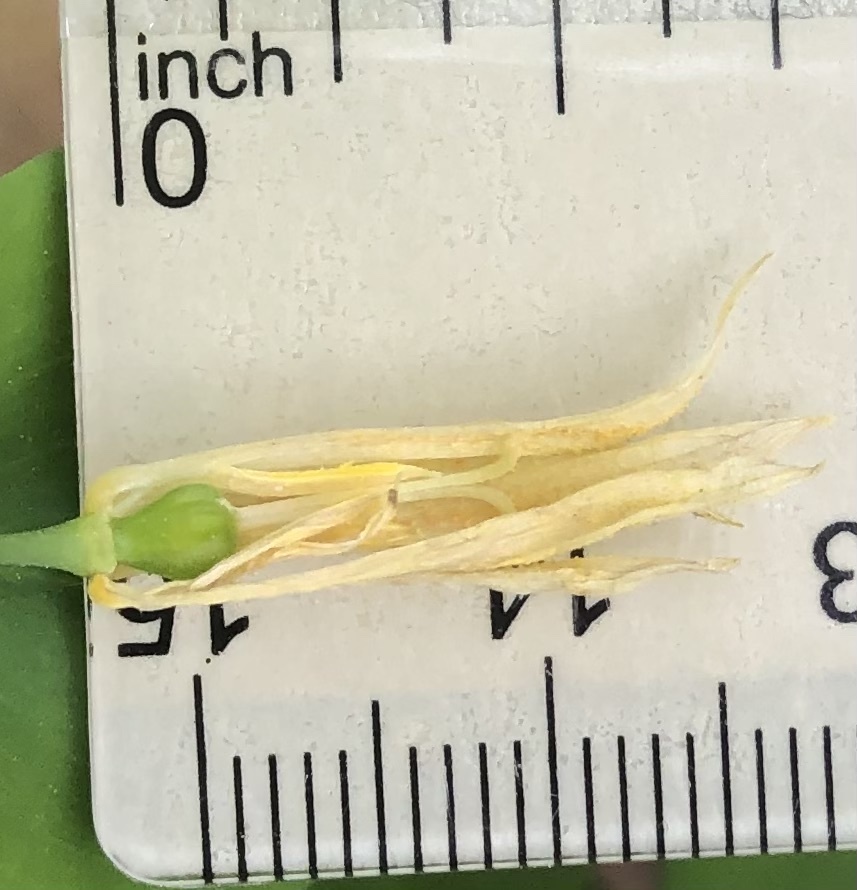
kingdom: Plantae
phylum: Tracheophyta
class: Liliopsida
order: Liliales
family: Colchicaceae
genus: Uvularia
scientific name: Uvularia perfoliata
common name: Perfoliate bellwort
